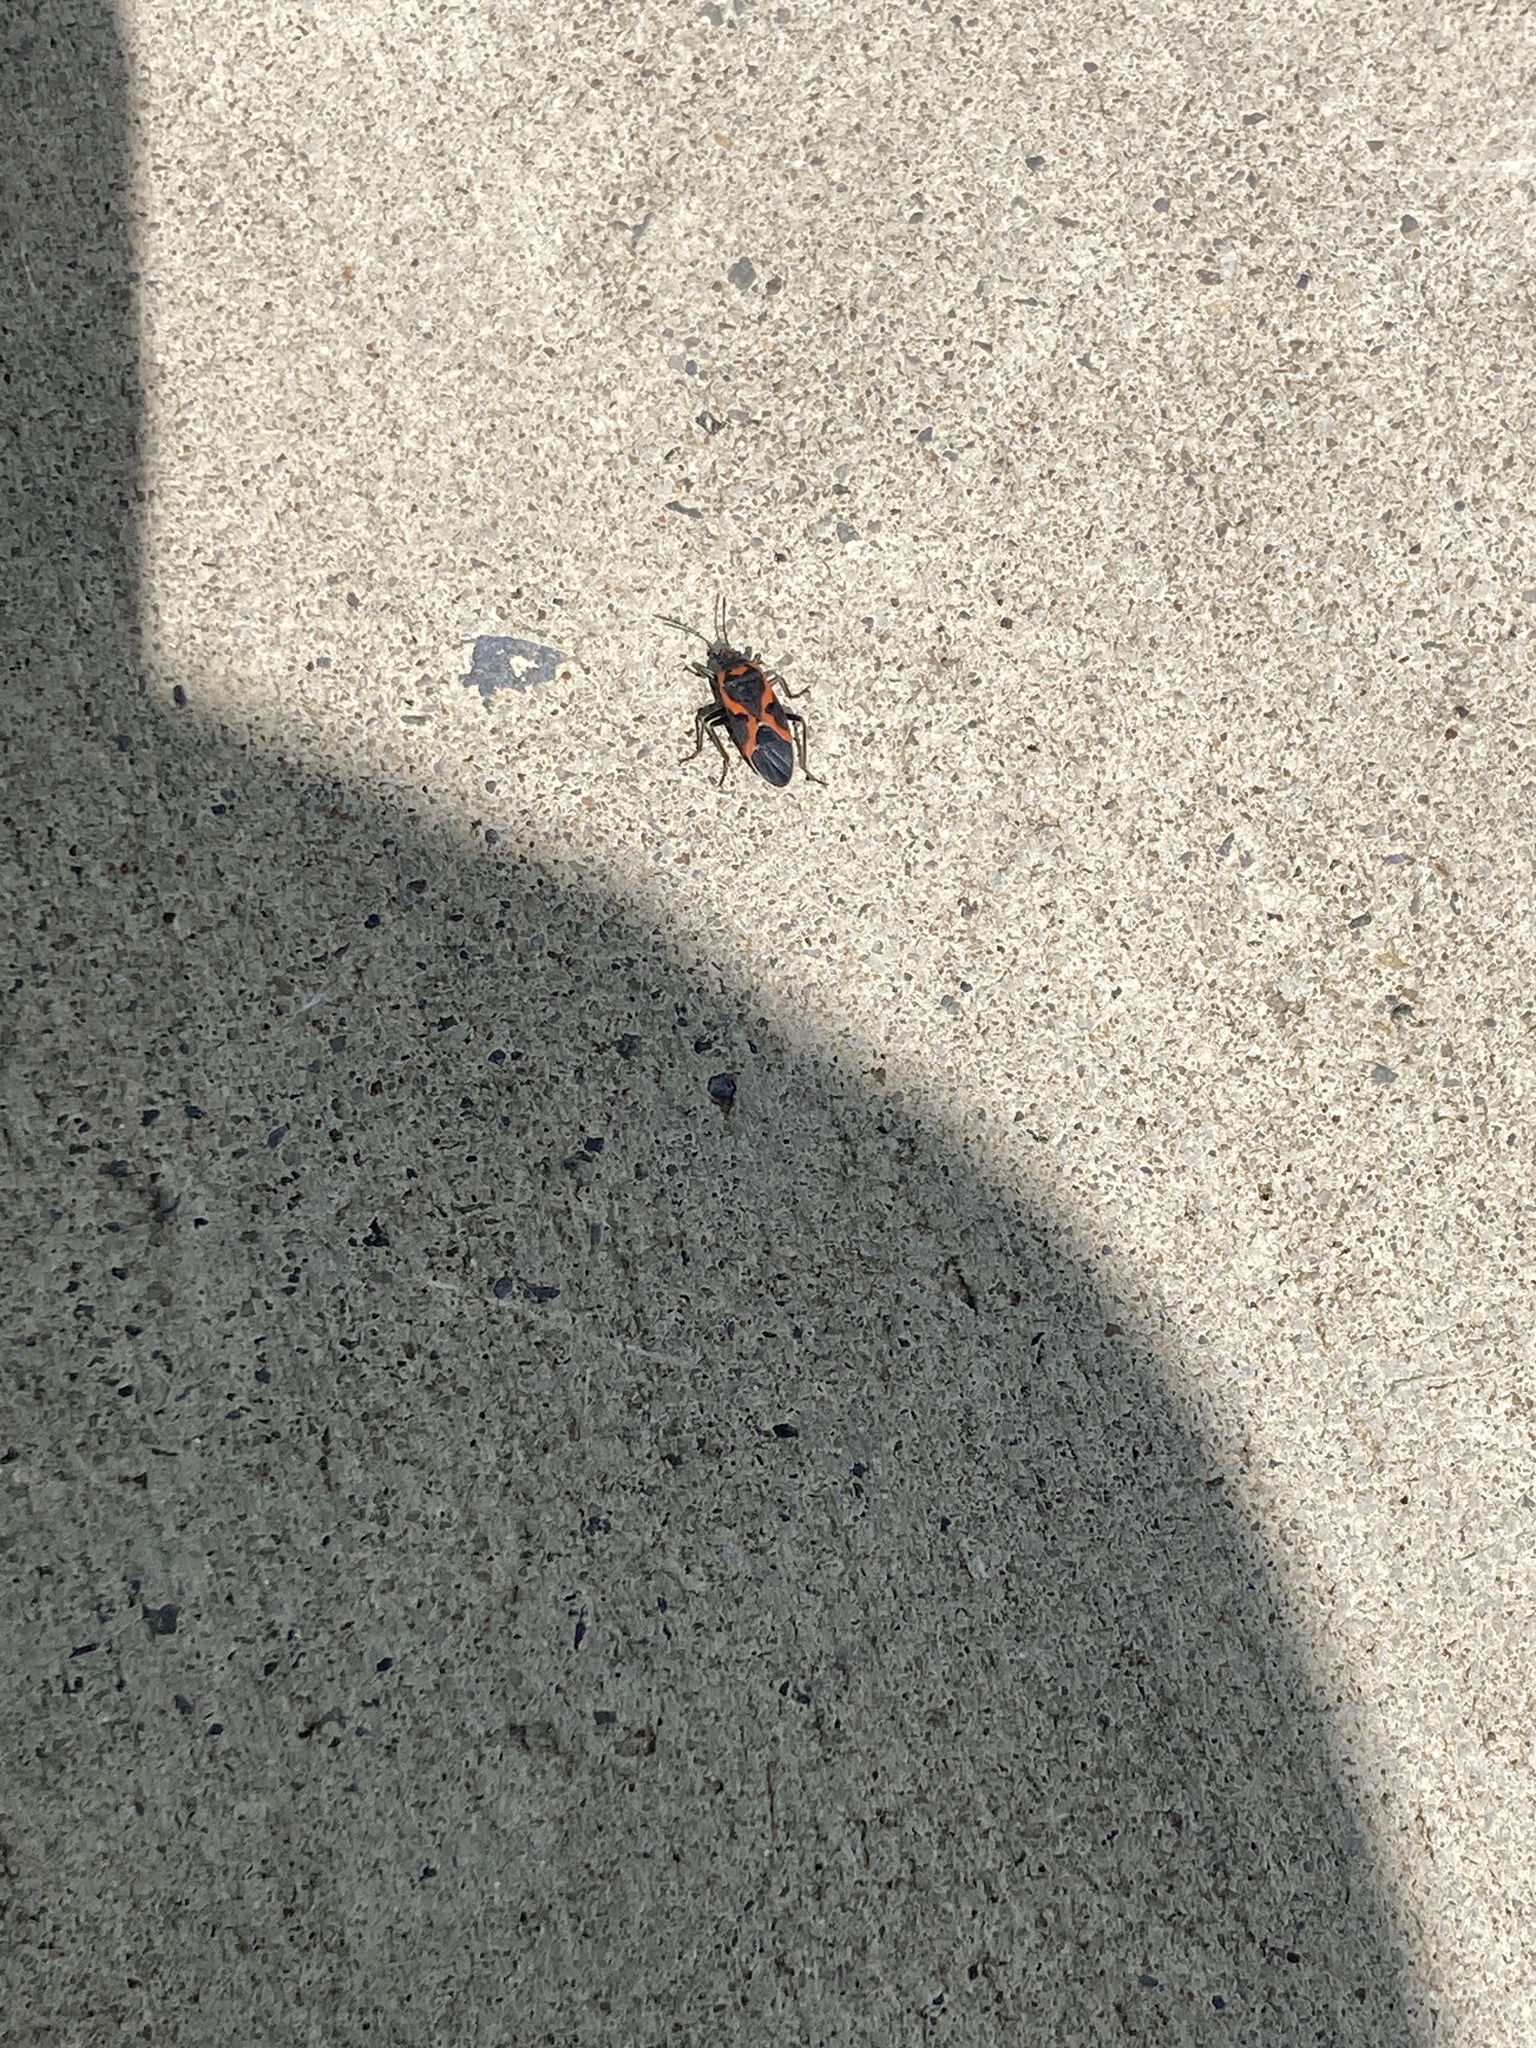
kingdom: Animalia
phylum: Arthropoda
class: Insecta
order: Hemiptera
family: Lygaeidae
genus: Lygaeus
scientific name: Lygaeus kalmii
